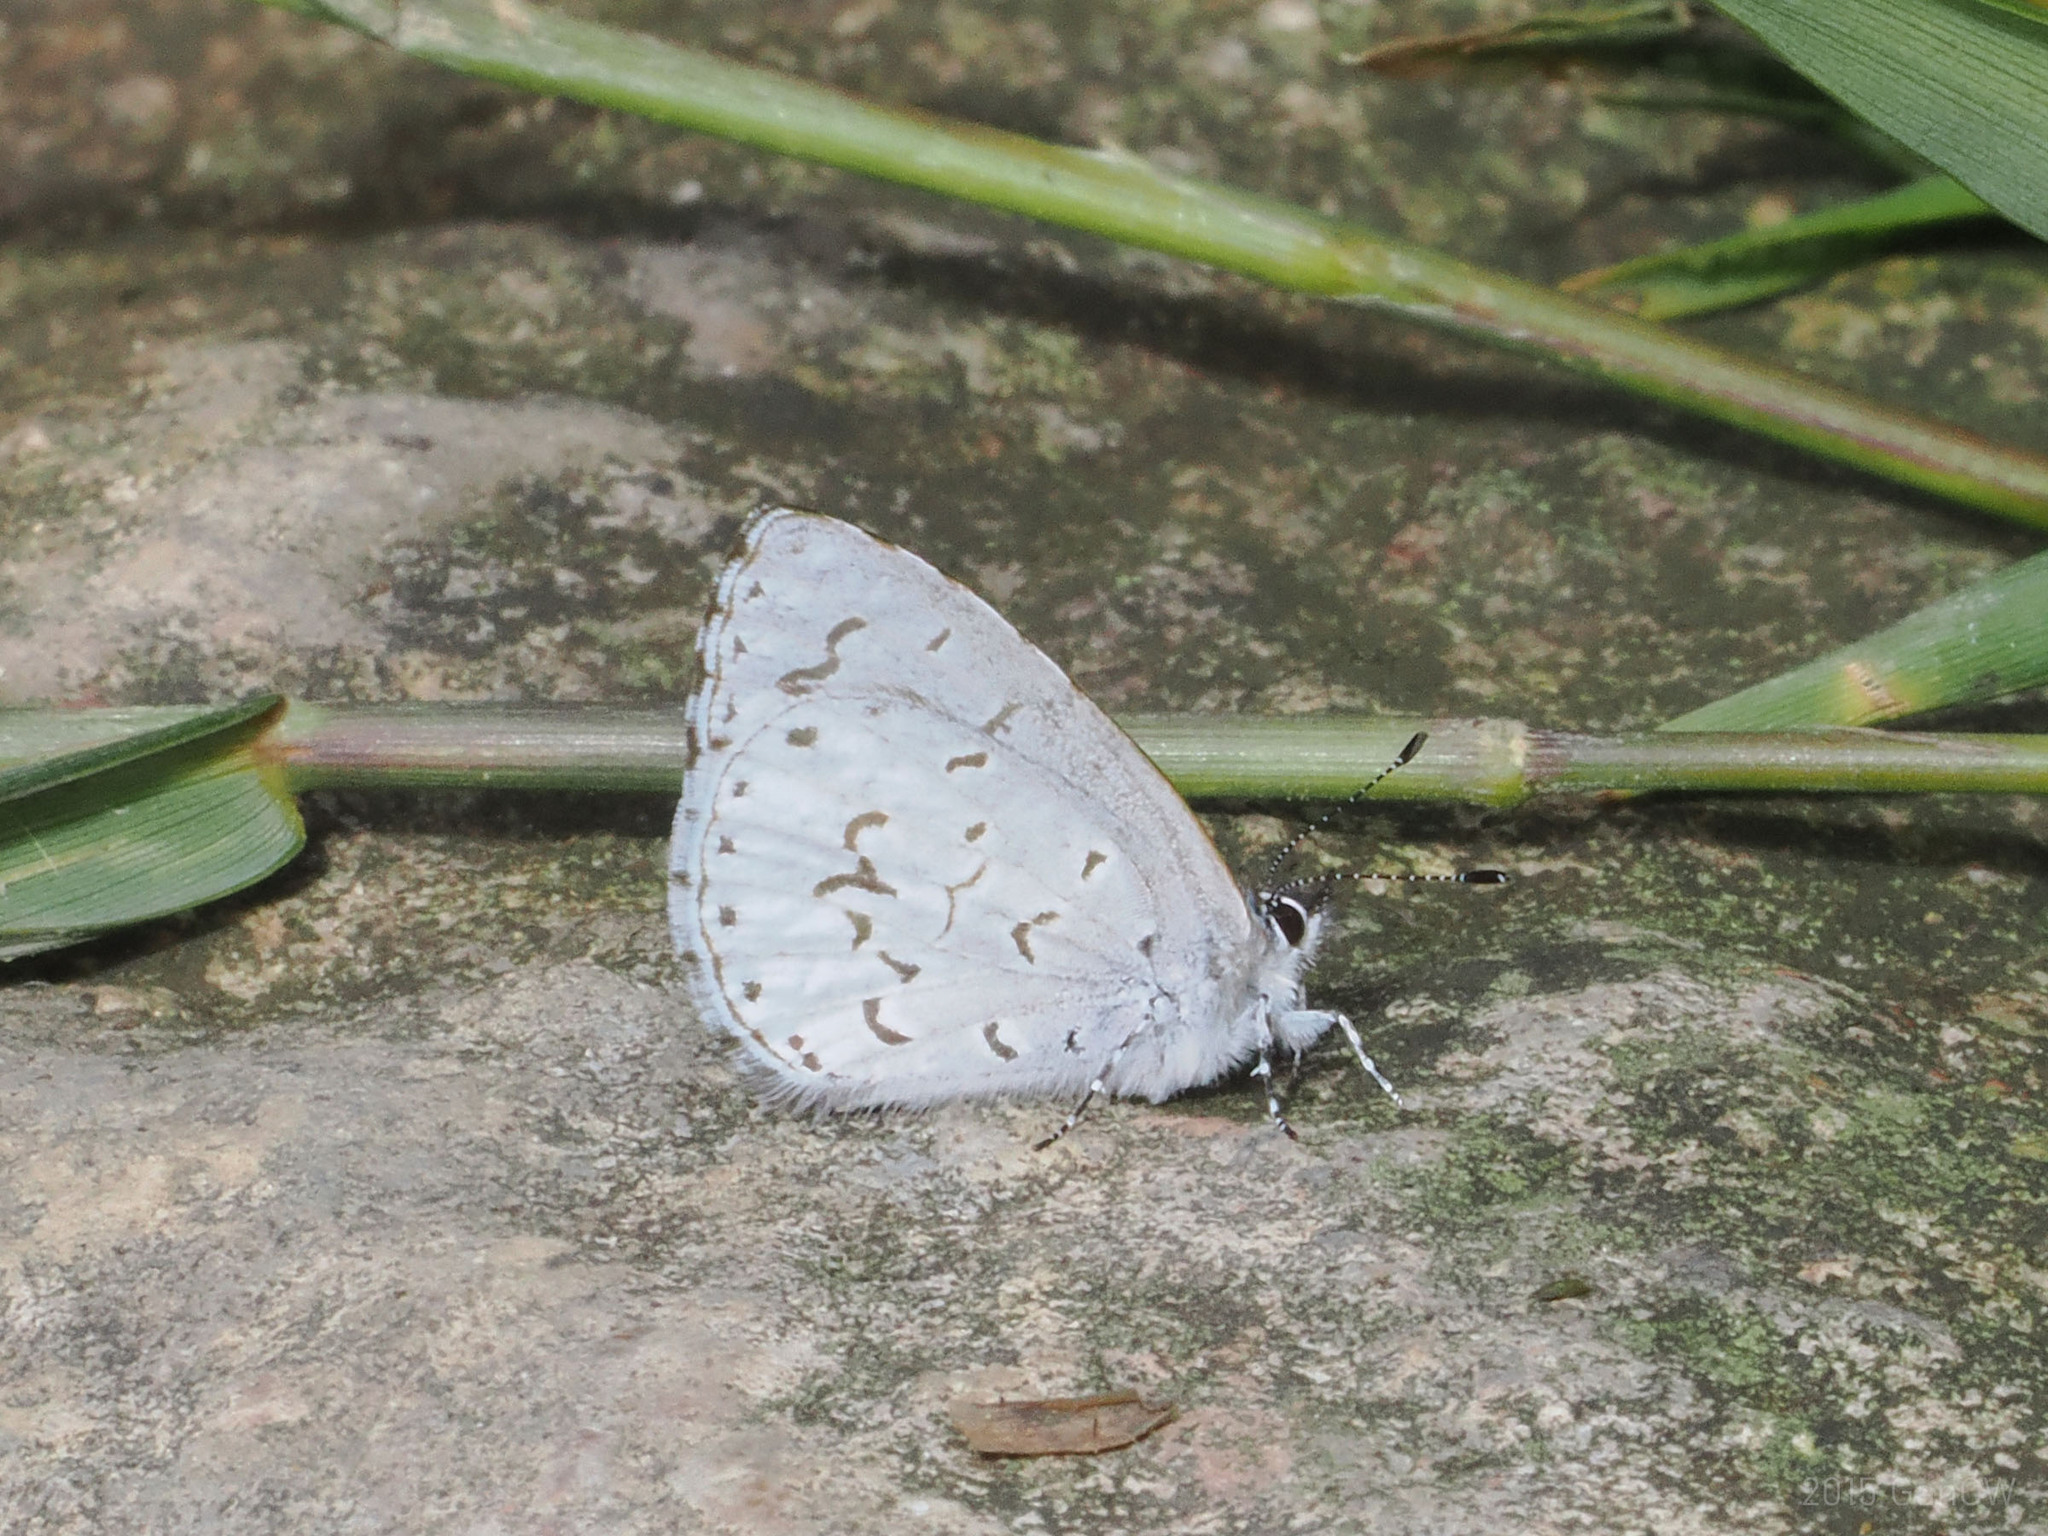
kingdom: Animalia
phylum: Arthropoda
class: Insecta
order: Lepidoptera
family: Lycaenidae
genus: Udara
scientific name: Udara drucei
